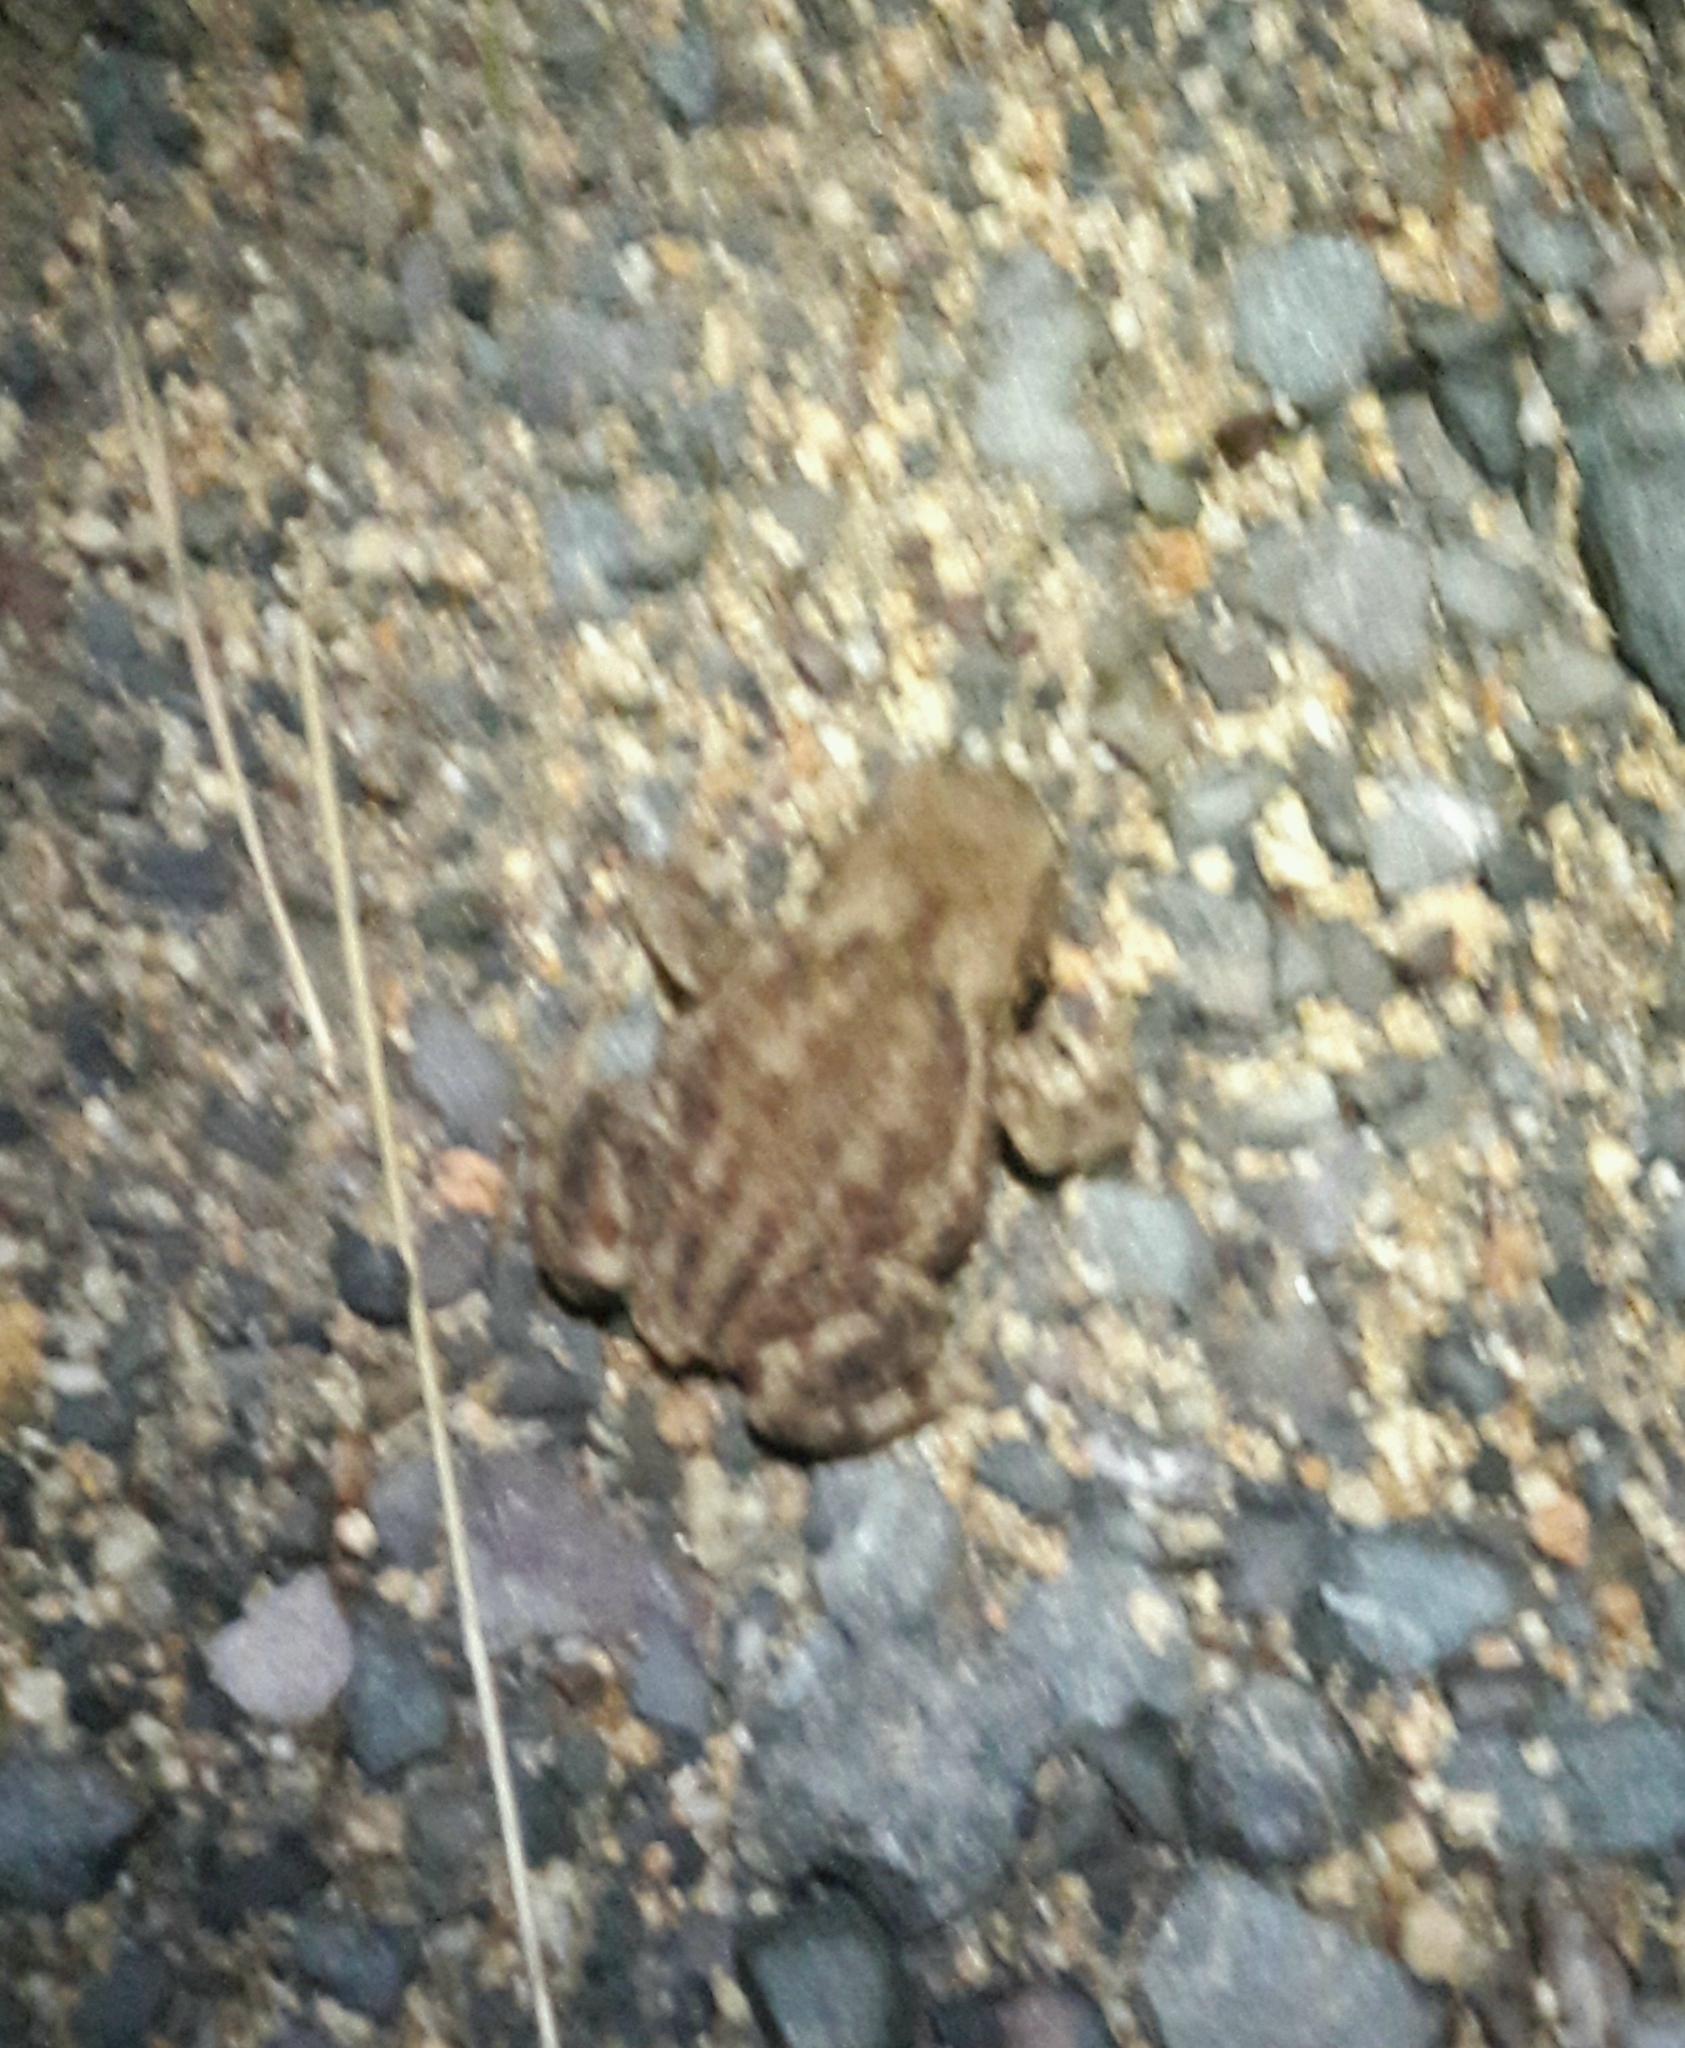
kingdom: Animalia
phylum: Chordata
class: Amphibia
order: Anura
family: Bufonidae
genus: Bufo
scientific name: Bufo bufo
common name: Common toad
